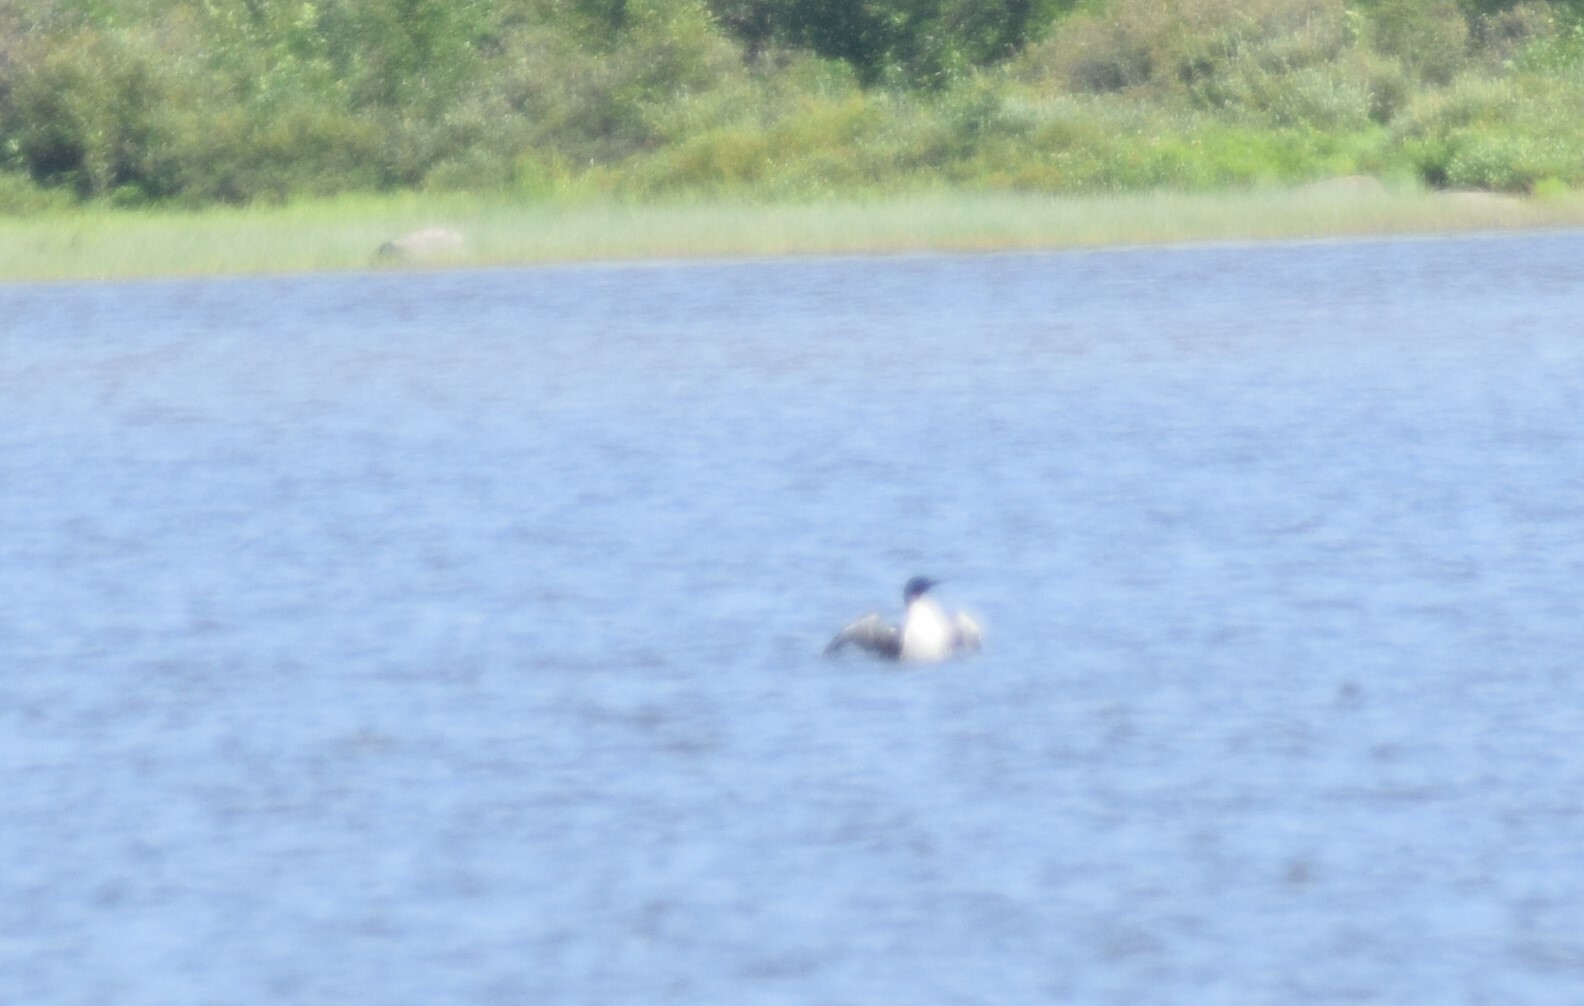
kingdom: Animalia
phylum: Chordata
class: Aves
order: Gaviiformes
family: Gaviidae
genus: Gavia
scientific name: Gavia immer
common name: Common loon
